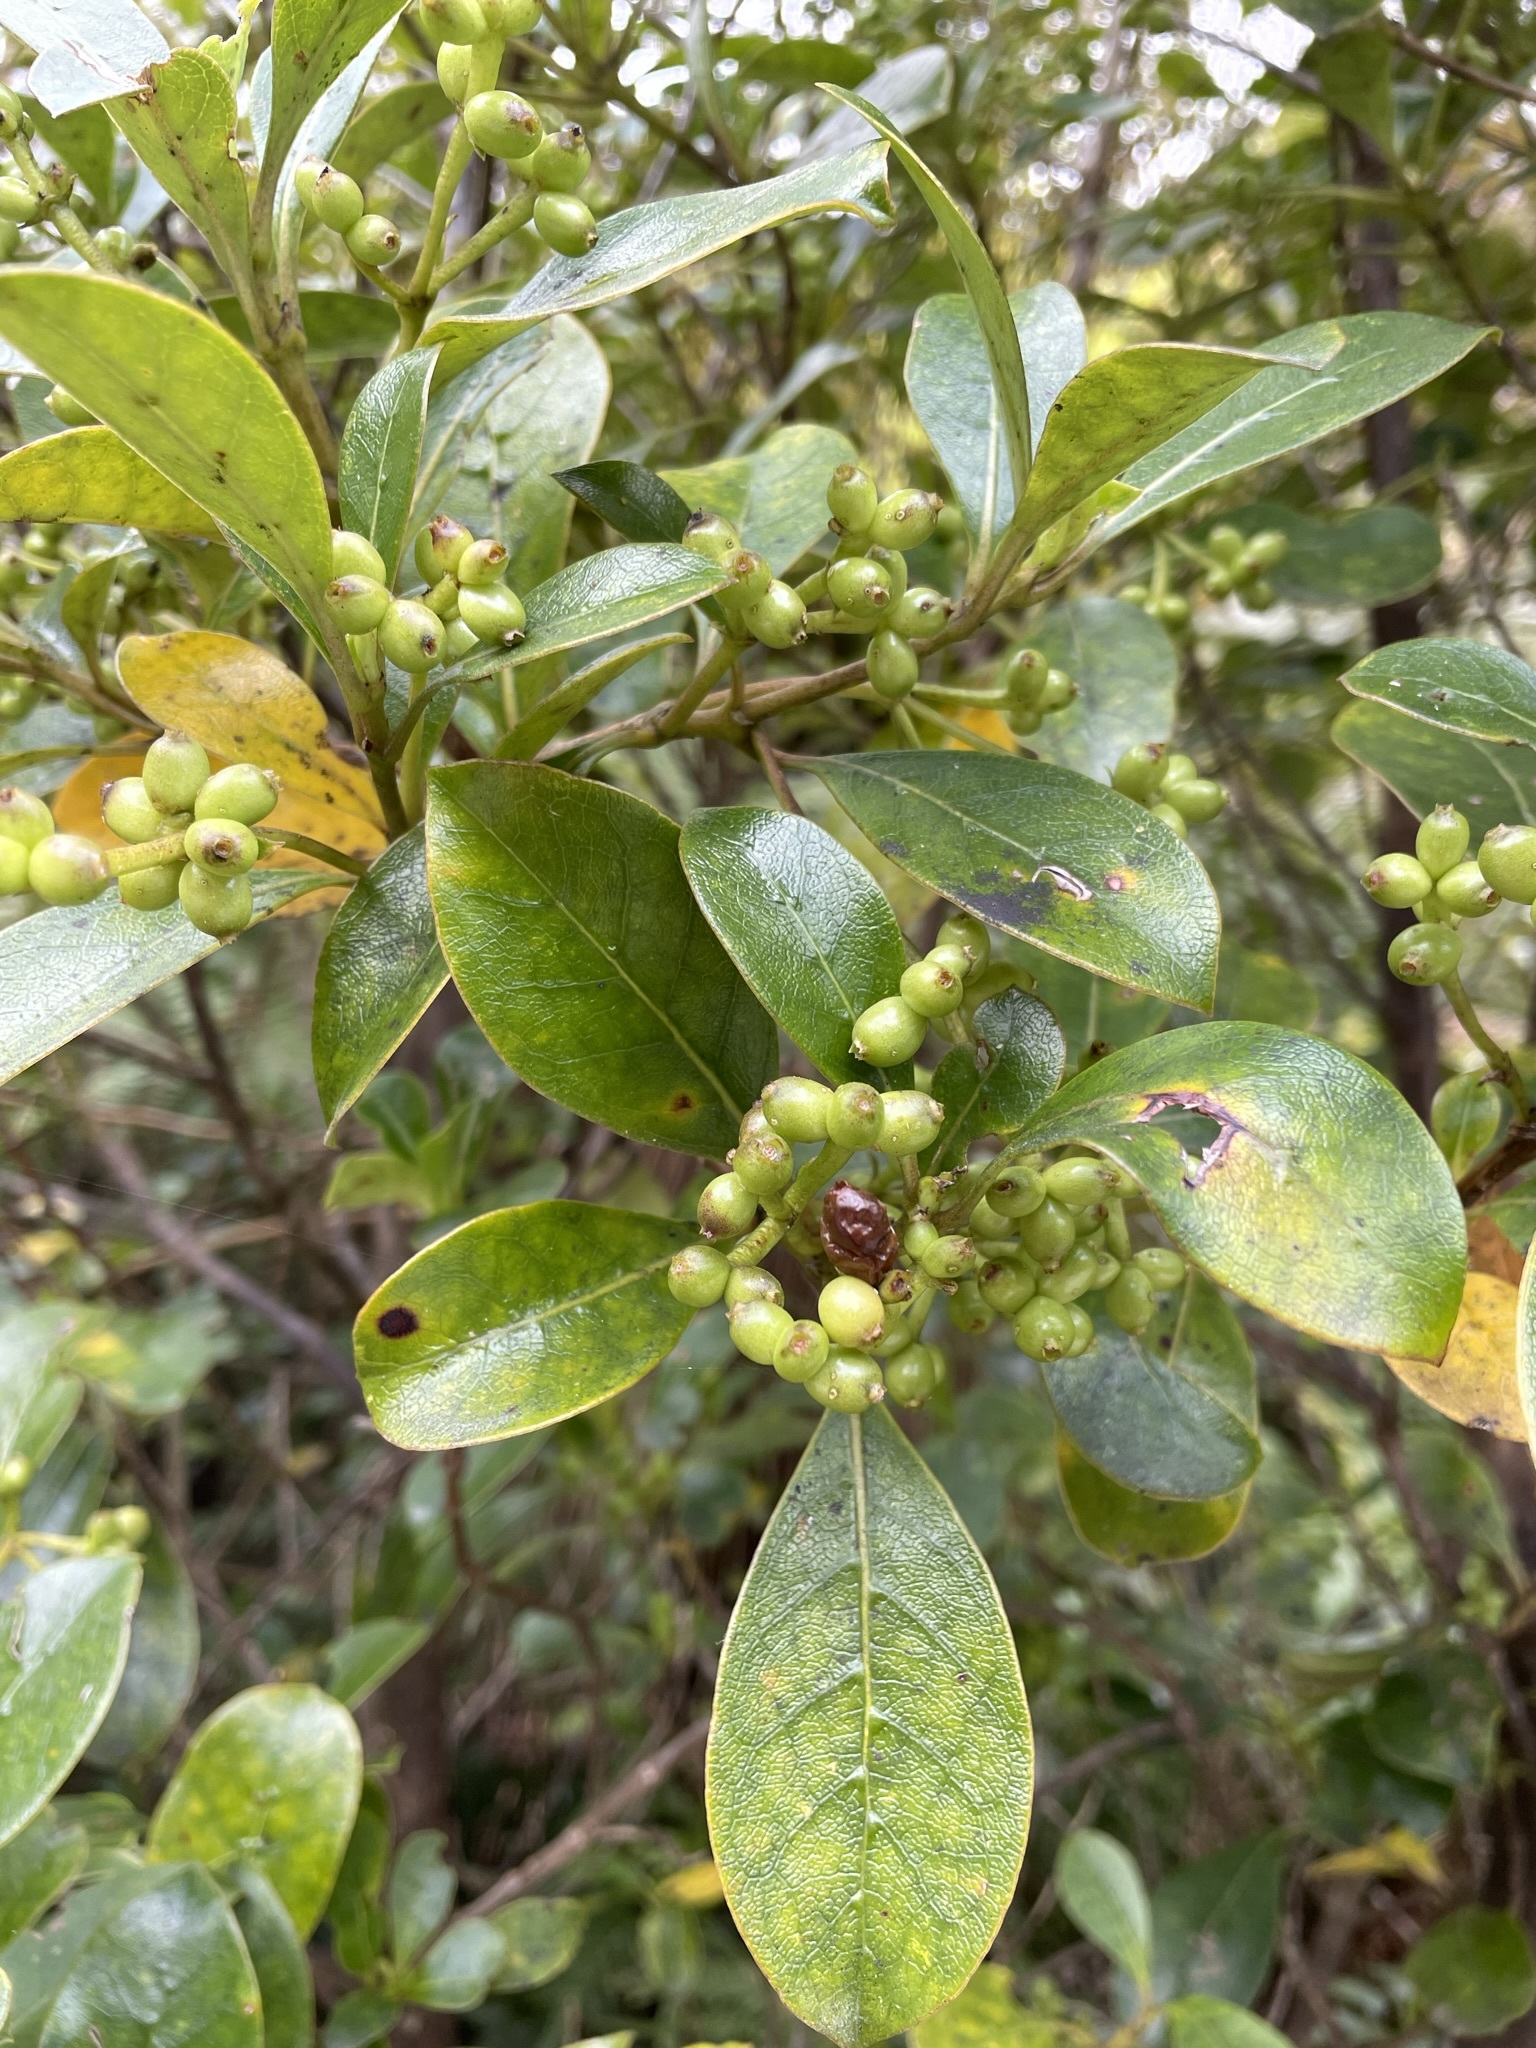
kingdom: Plantae
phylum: Tracheophyta
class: Magnoliopsida
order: Gentianales
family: Rubiaceae
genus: Coprosma
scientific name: Coprosma lucida
